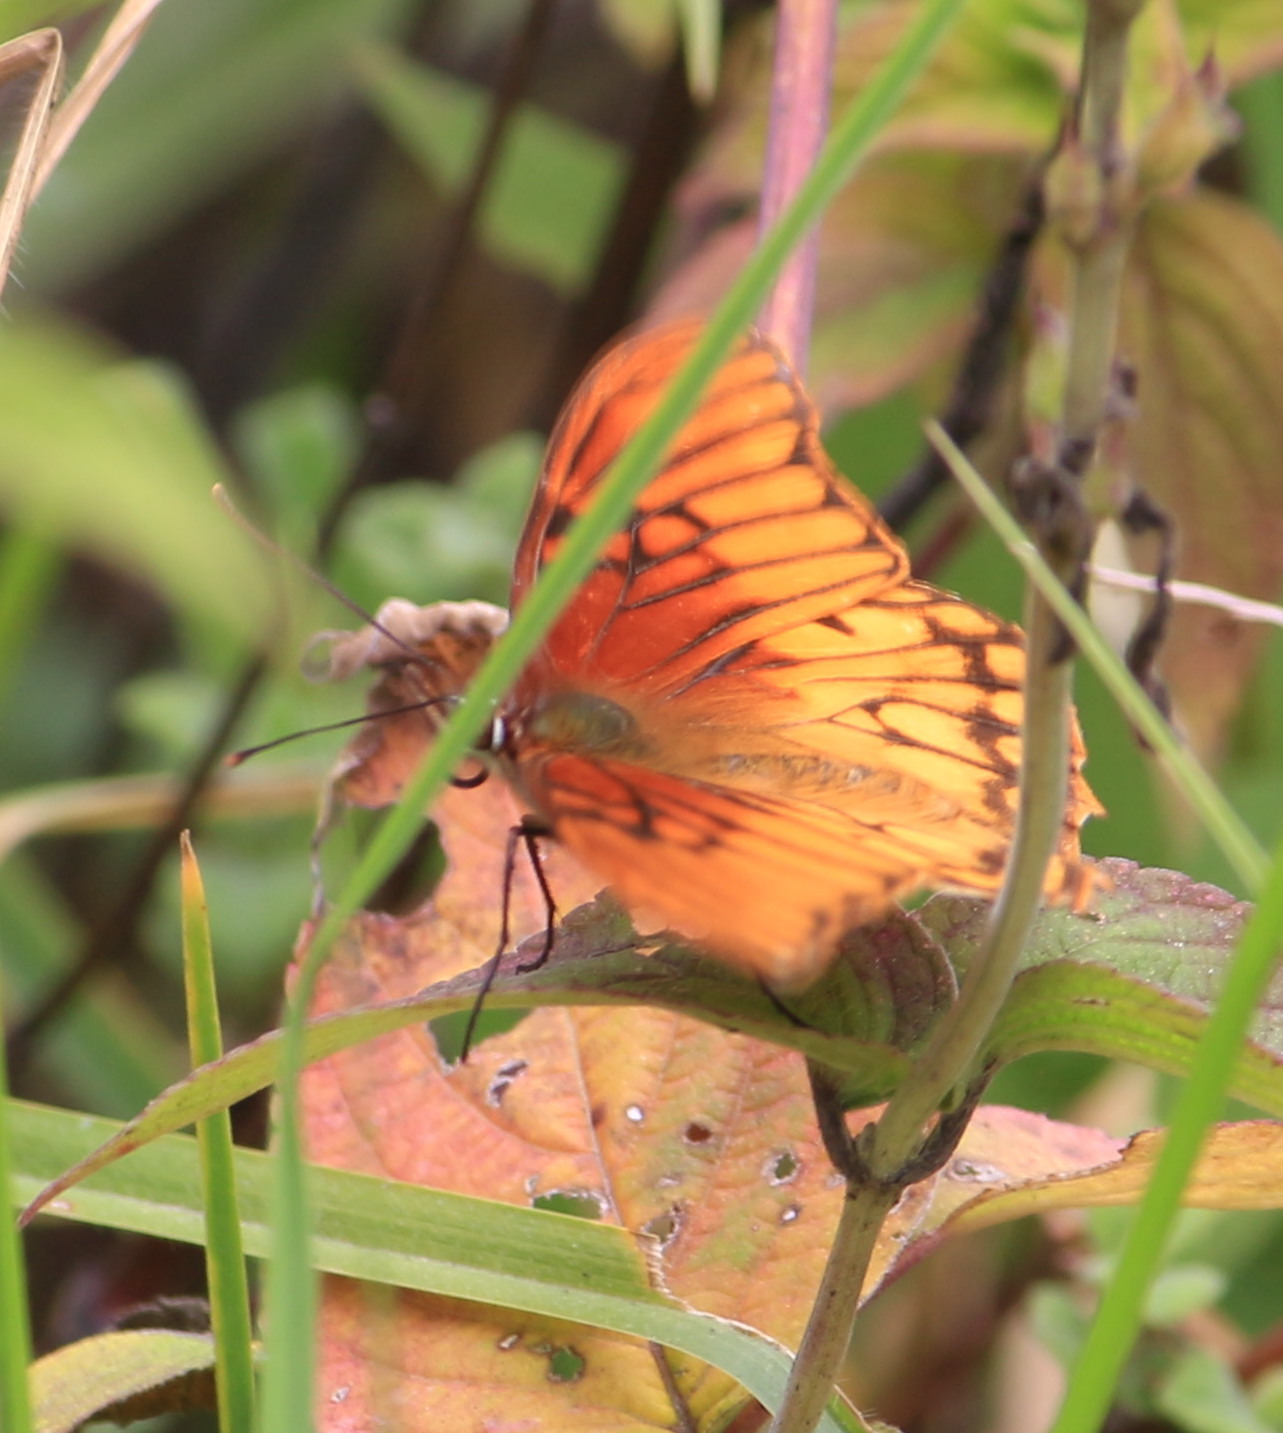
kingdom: Animalia
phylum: Arthropoda
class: Insecta
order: Lepidoptera
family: Nymphalidae
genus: Dione
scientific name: Dione moneta
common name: Mexican silverspot
